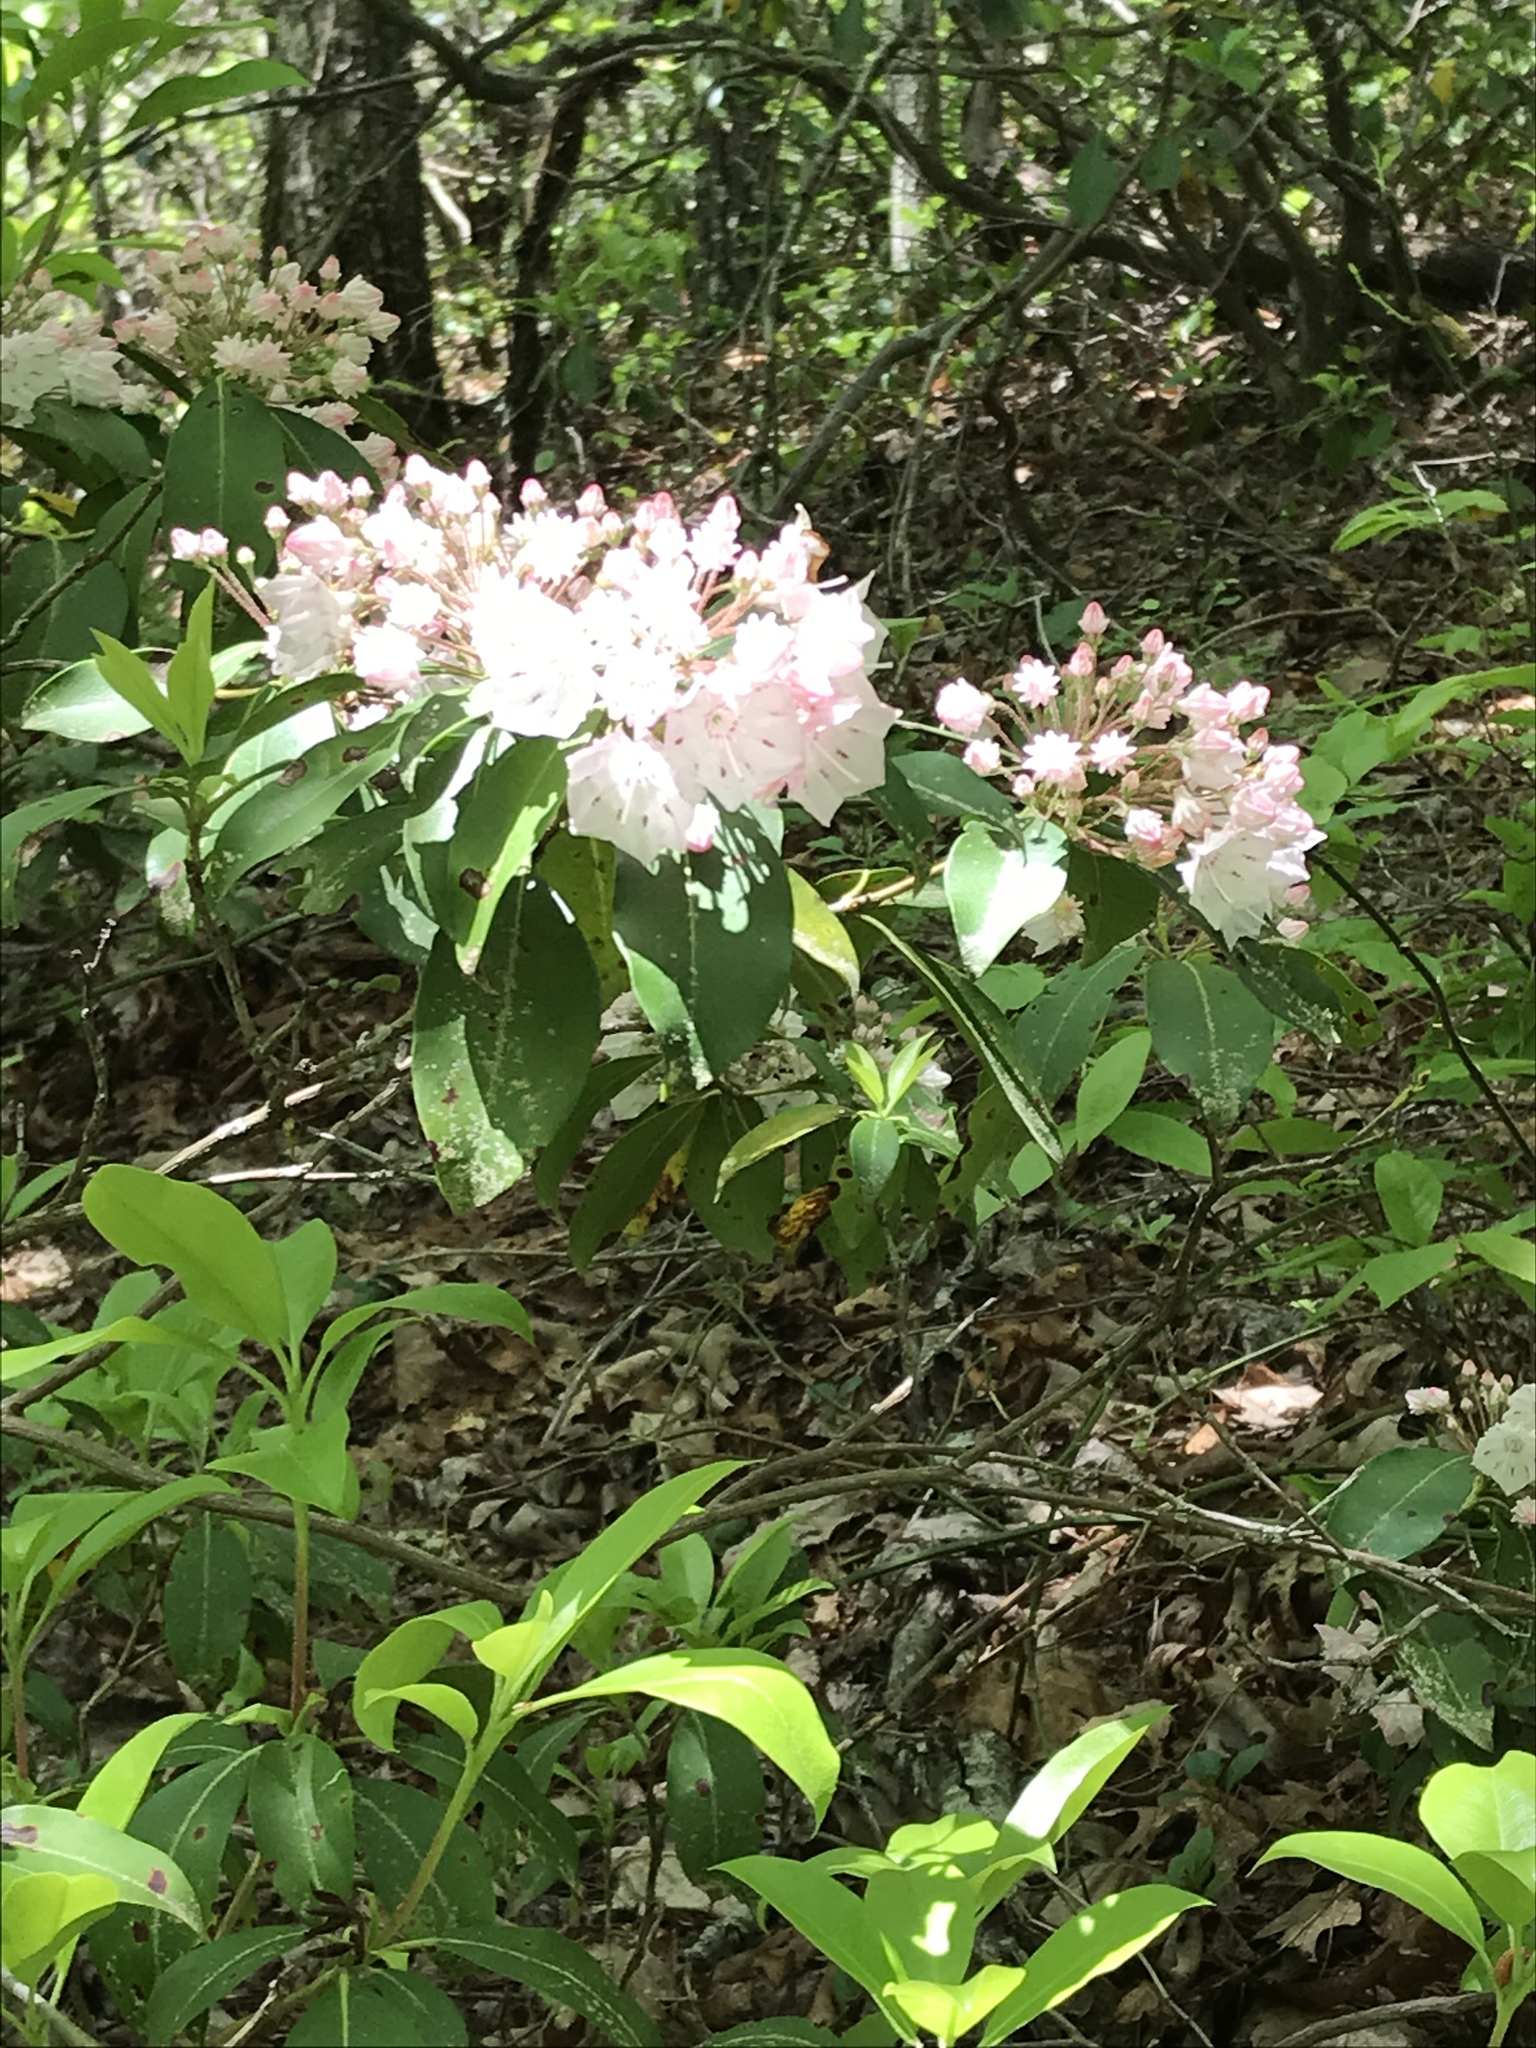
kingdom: Plantae
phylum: Tracheophyta
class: Magnoliopsida
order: Ericales
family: Ericaceae
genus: Kalmia
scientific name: Kalmia latifolia
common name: Mountain-laurel
